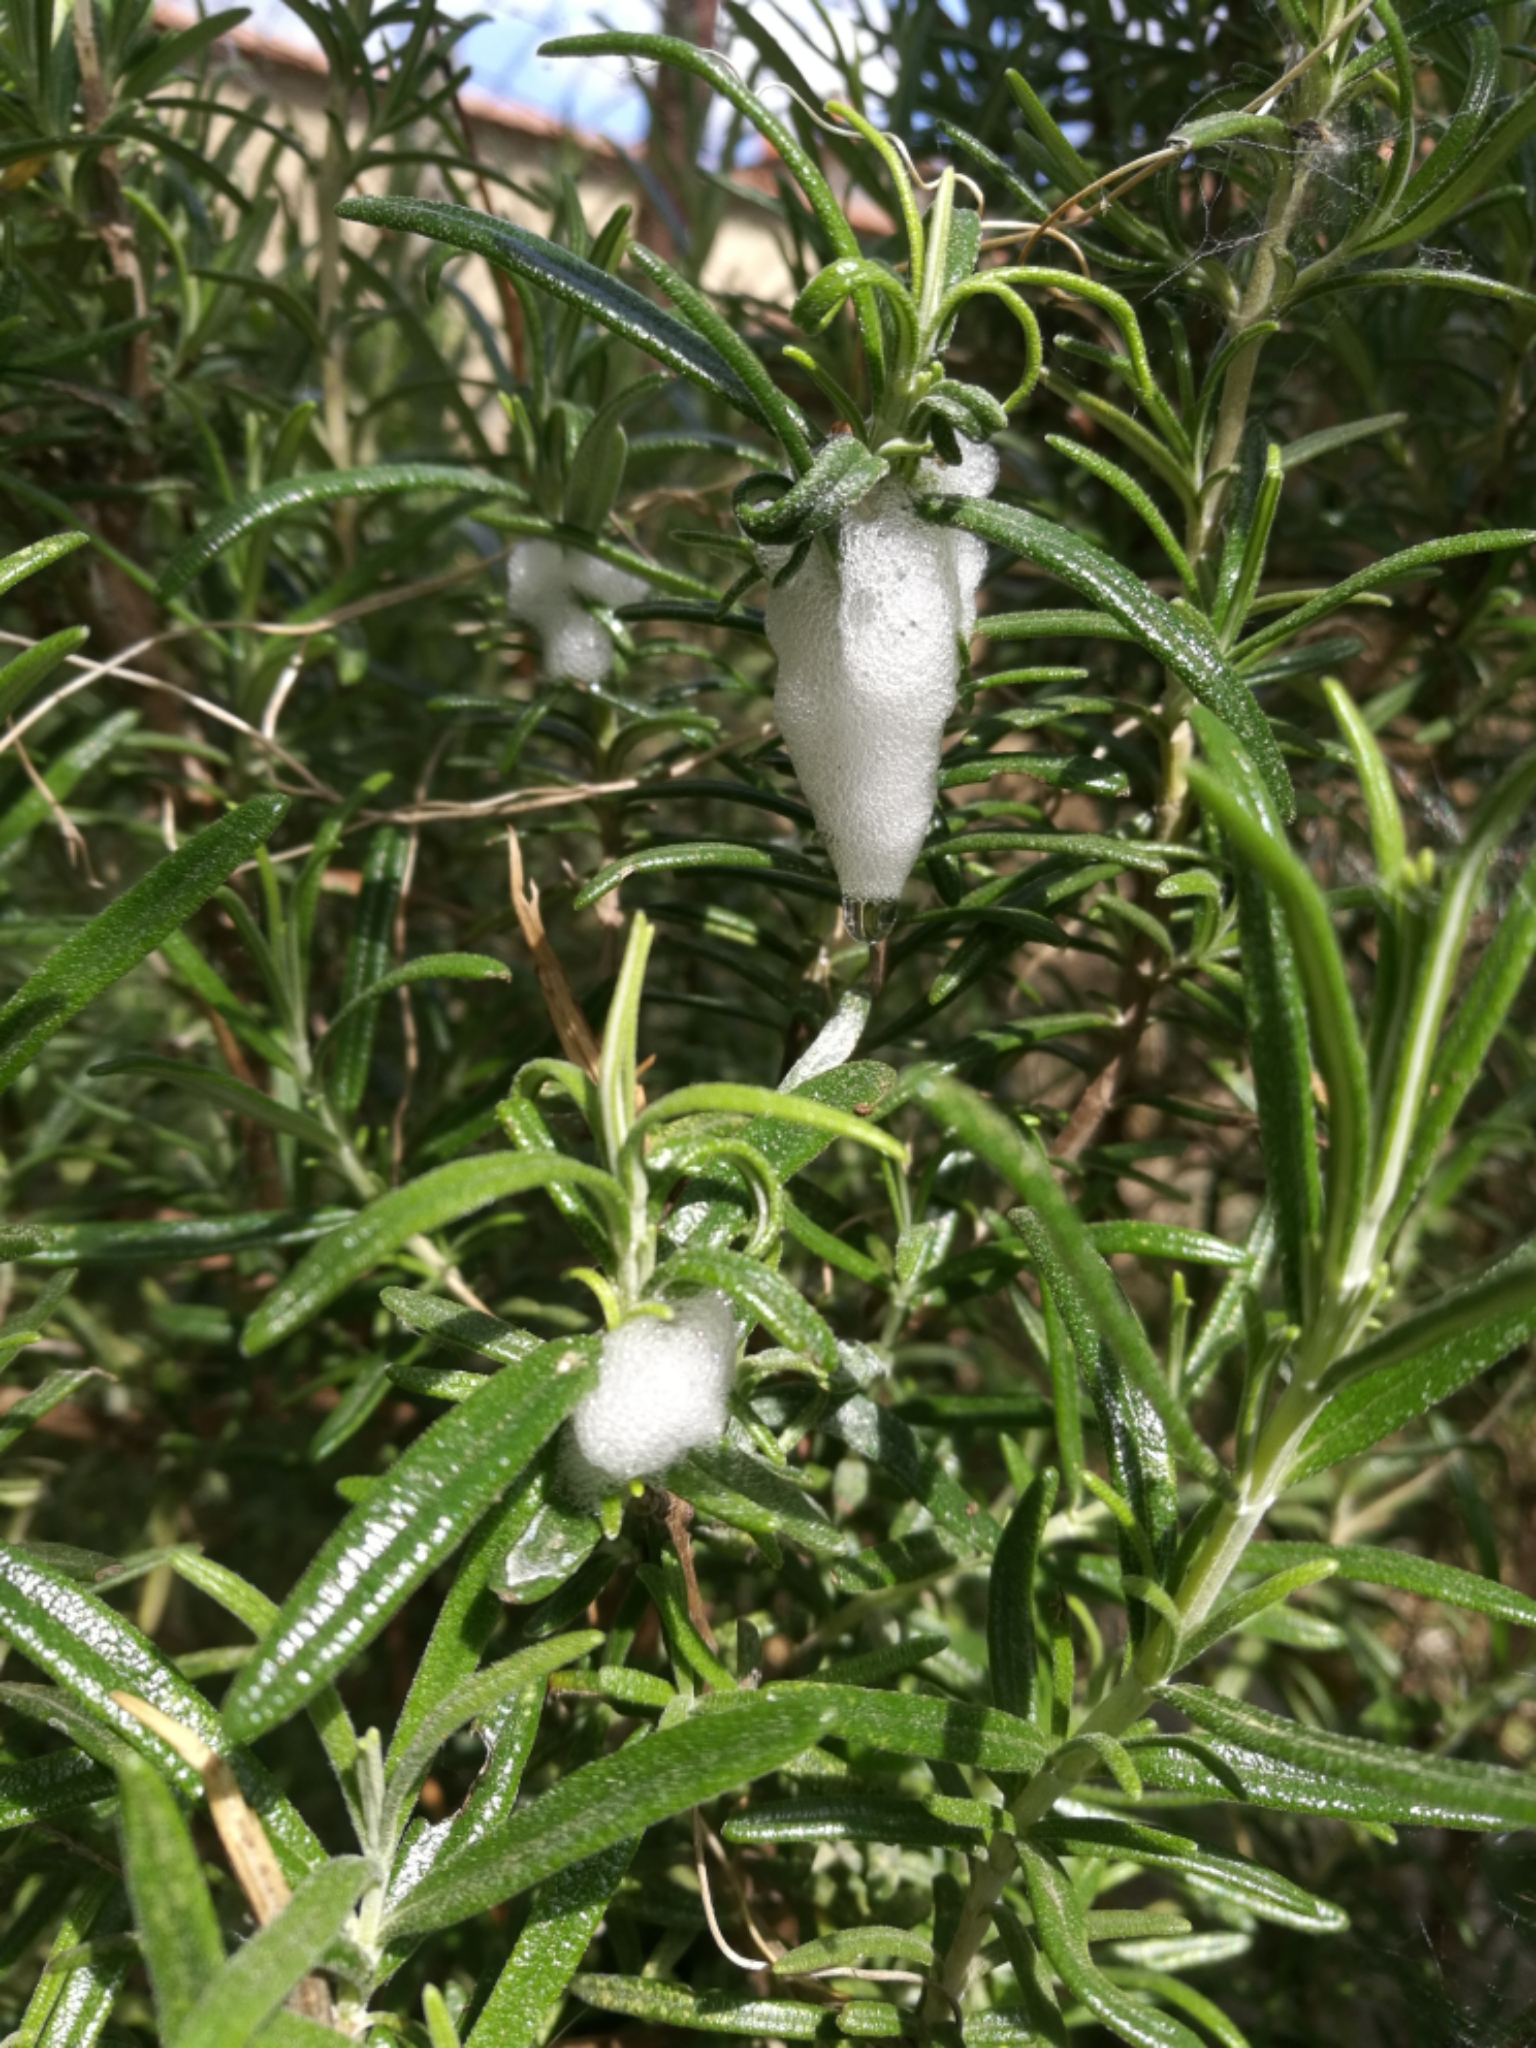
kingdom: Animalia
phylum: Arthropoda
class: Insecta
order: Hemiptera
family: Aphrophoridae
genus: Philaenus
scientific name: Philaenus spumarius
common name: Meadow spittlebug
